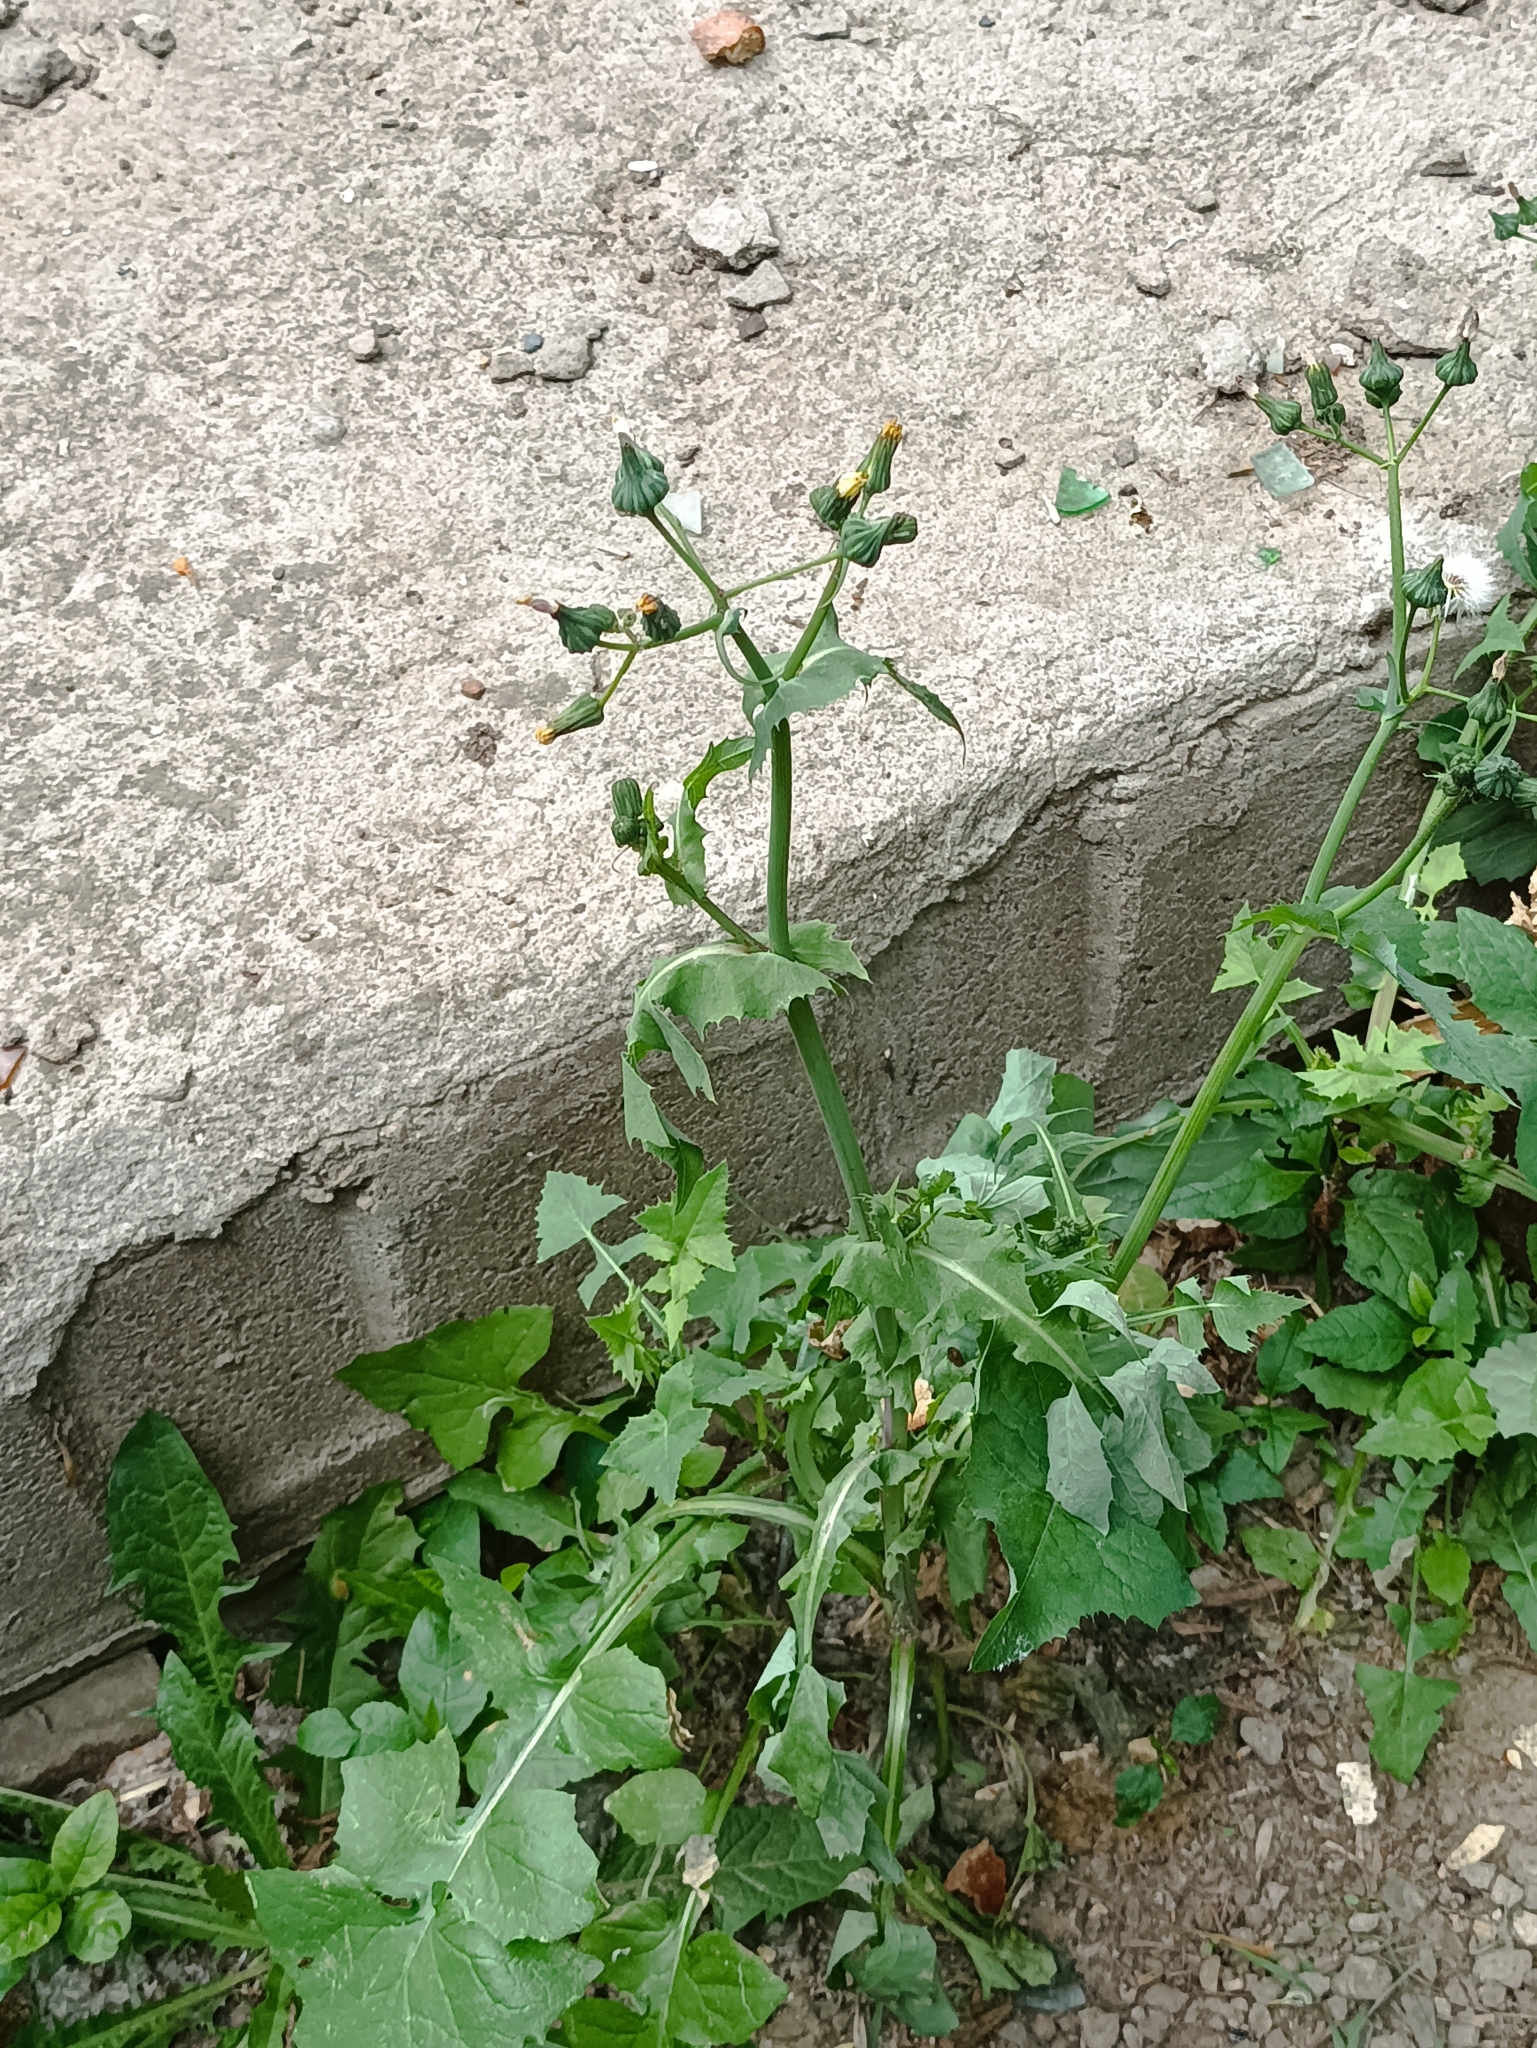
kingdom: Plantae
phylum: Tracheophyta
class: Magnoliopsida
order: Asterales
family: Asteraceae
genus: Sonchus
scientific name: Sonchus oleraceus
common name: Common sowthistle
